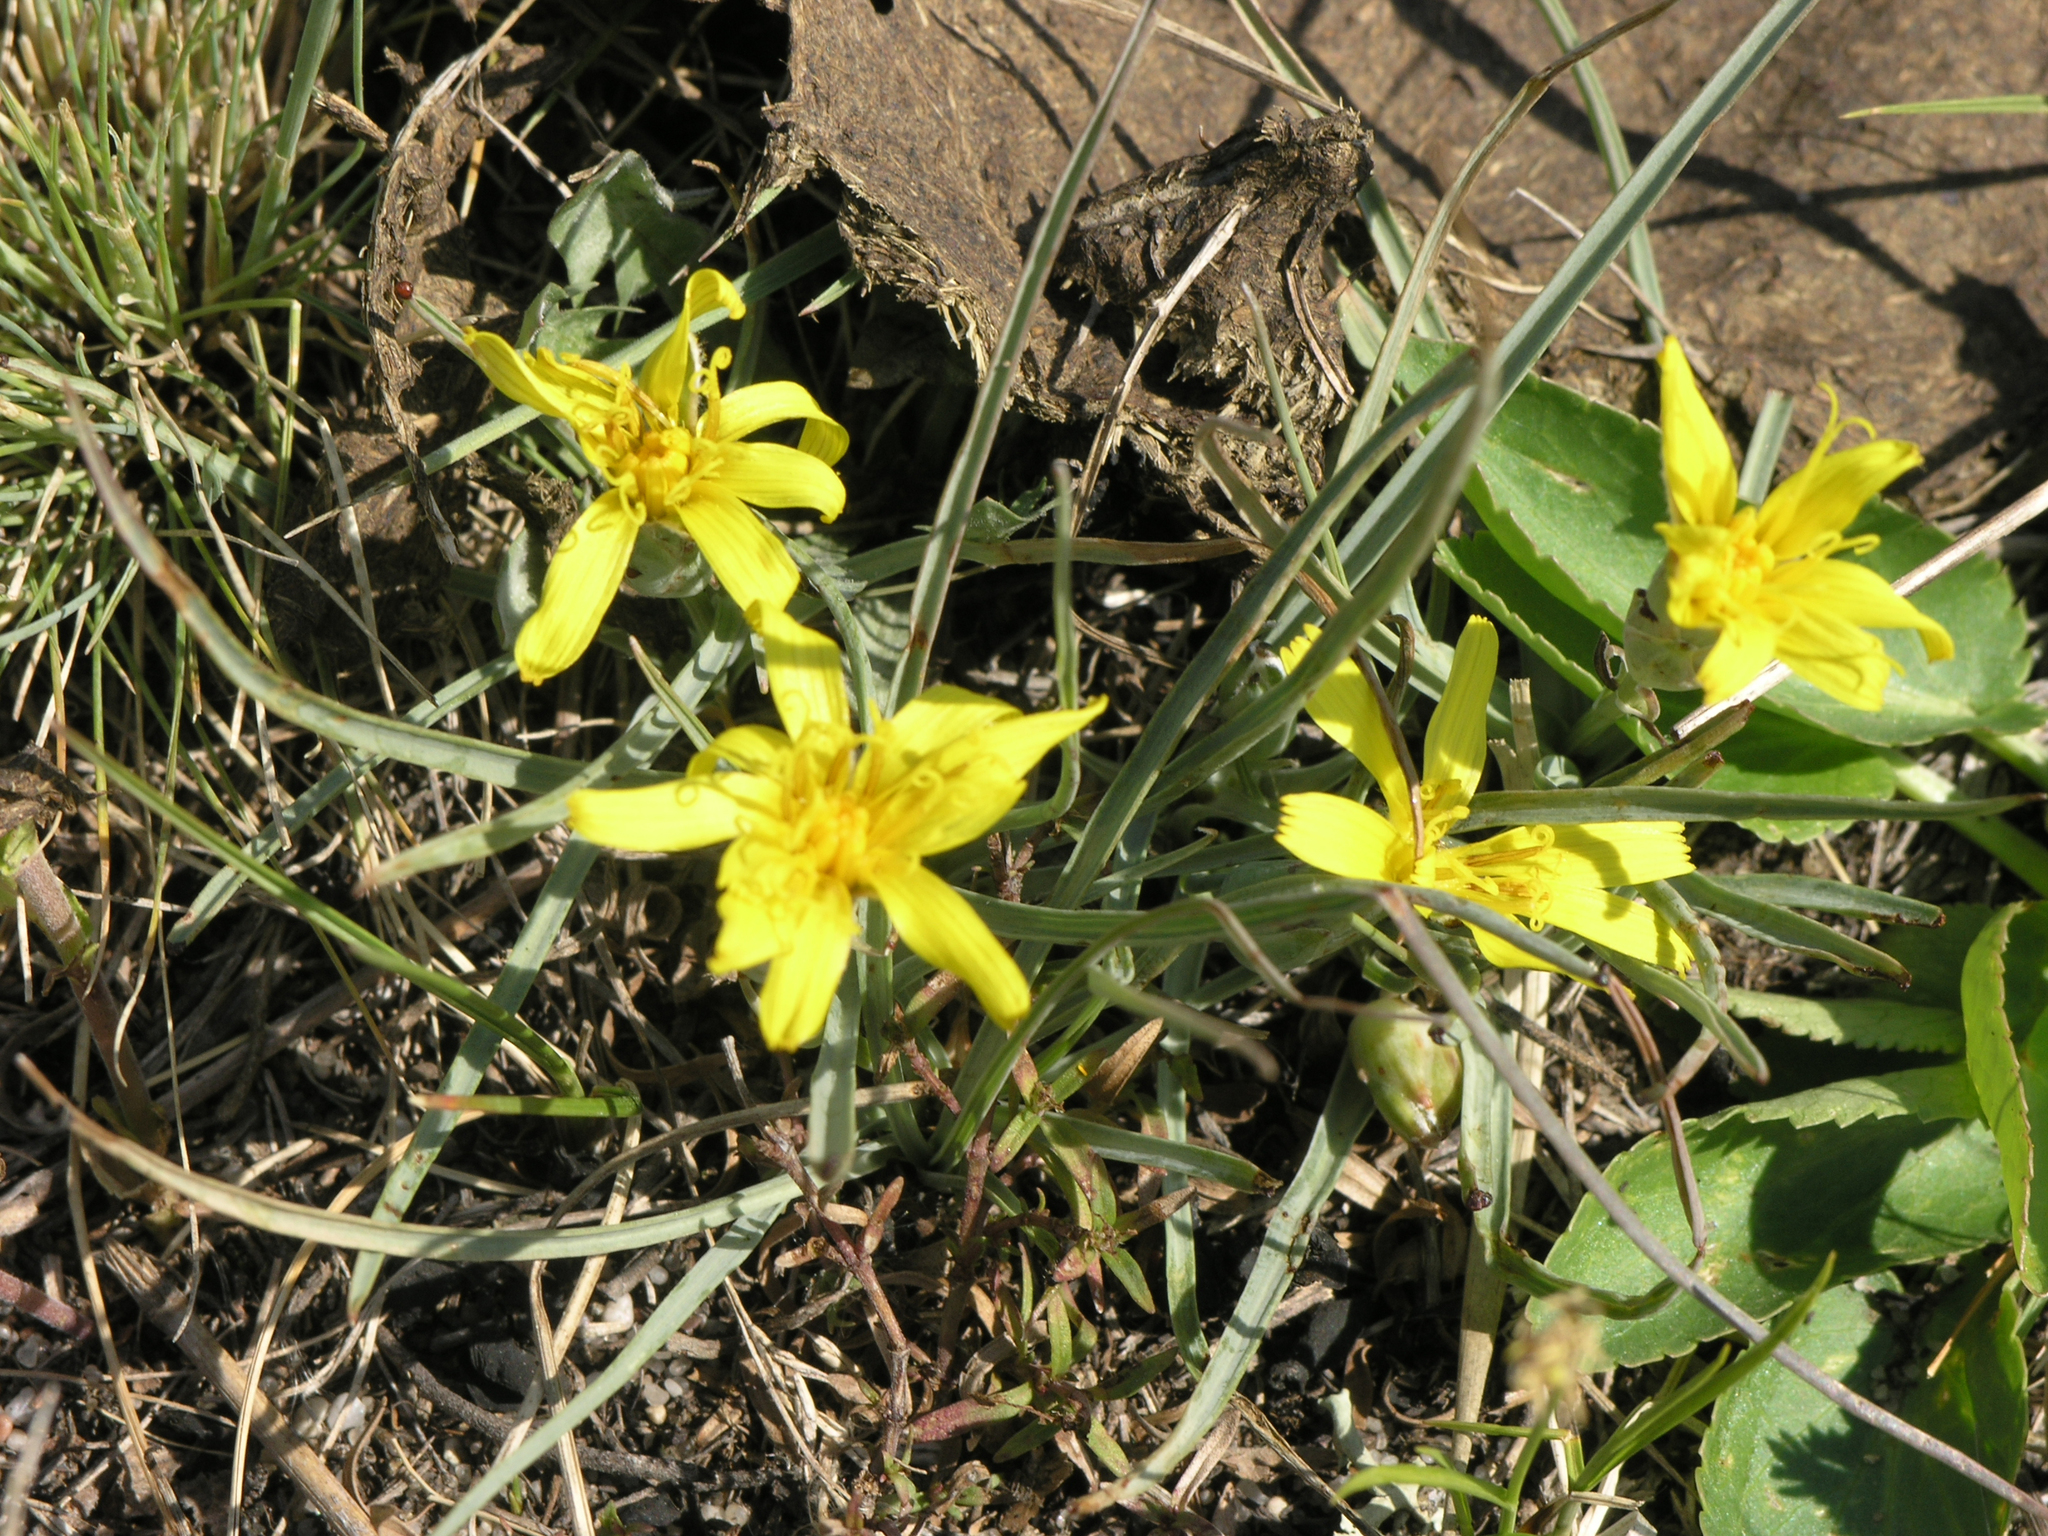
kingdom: Plantae
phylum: Tracheophyta
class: Magnoliopsida
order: Asterales
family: Asteraceae
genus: Takhtajaniantha
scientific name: Takhtajaniantha austriaca
